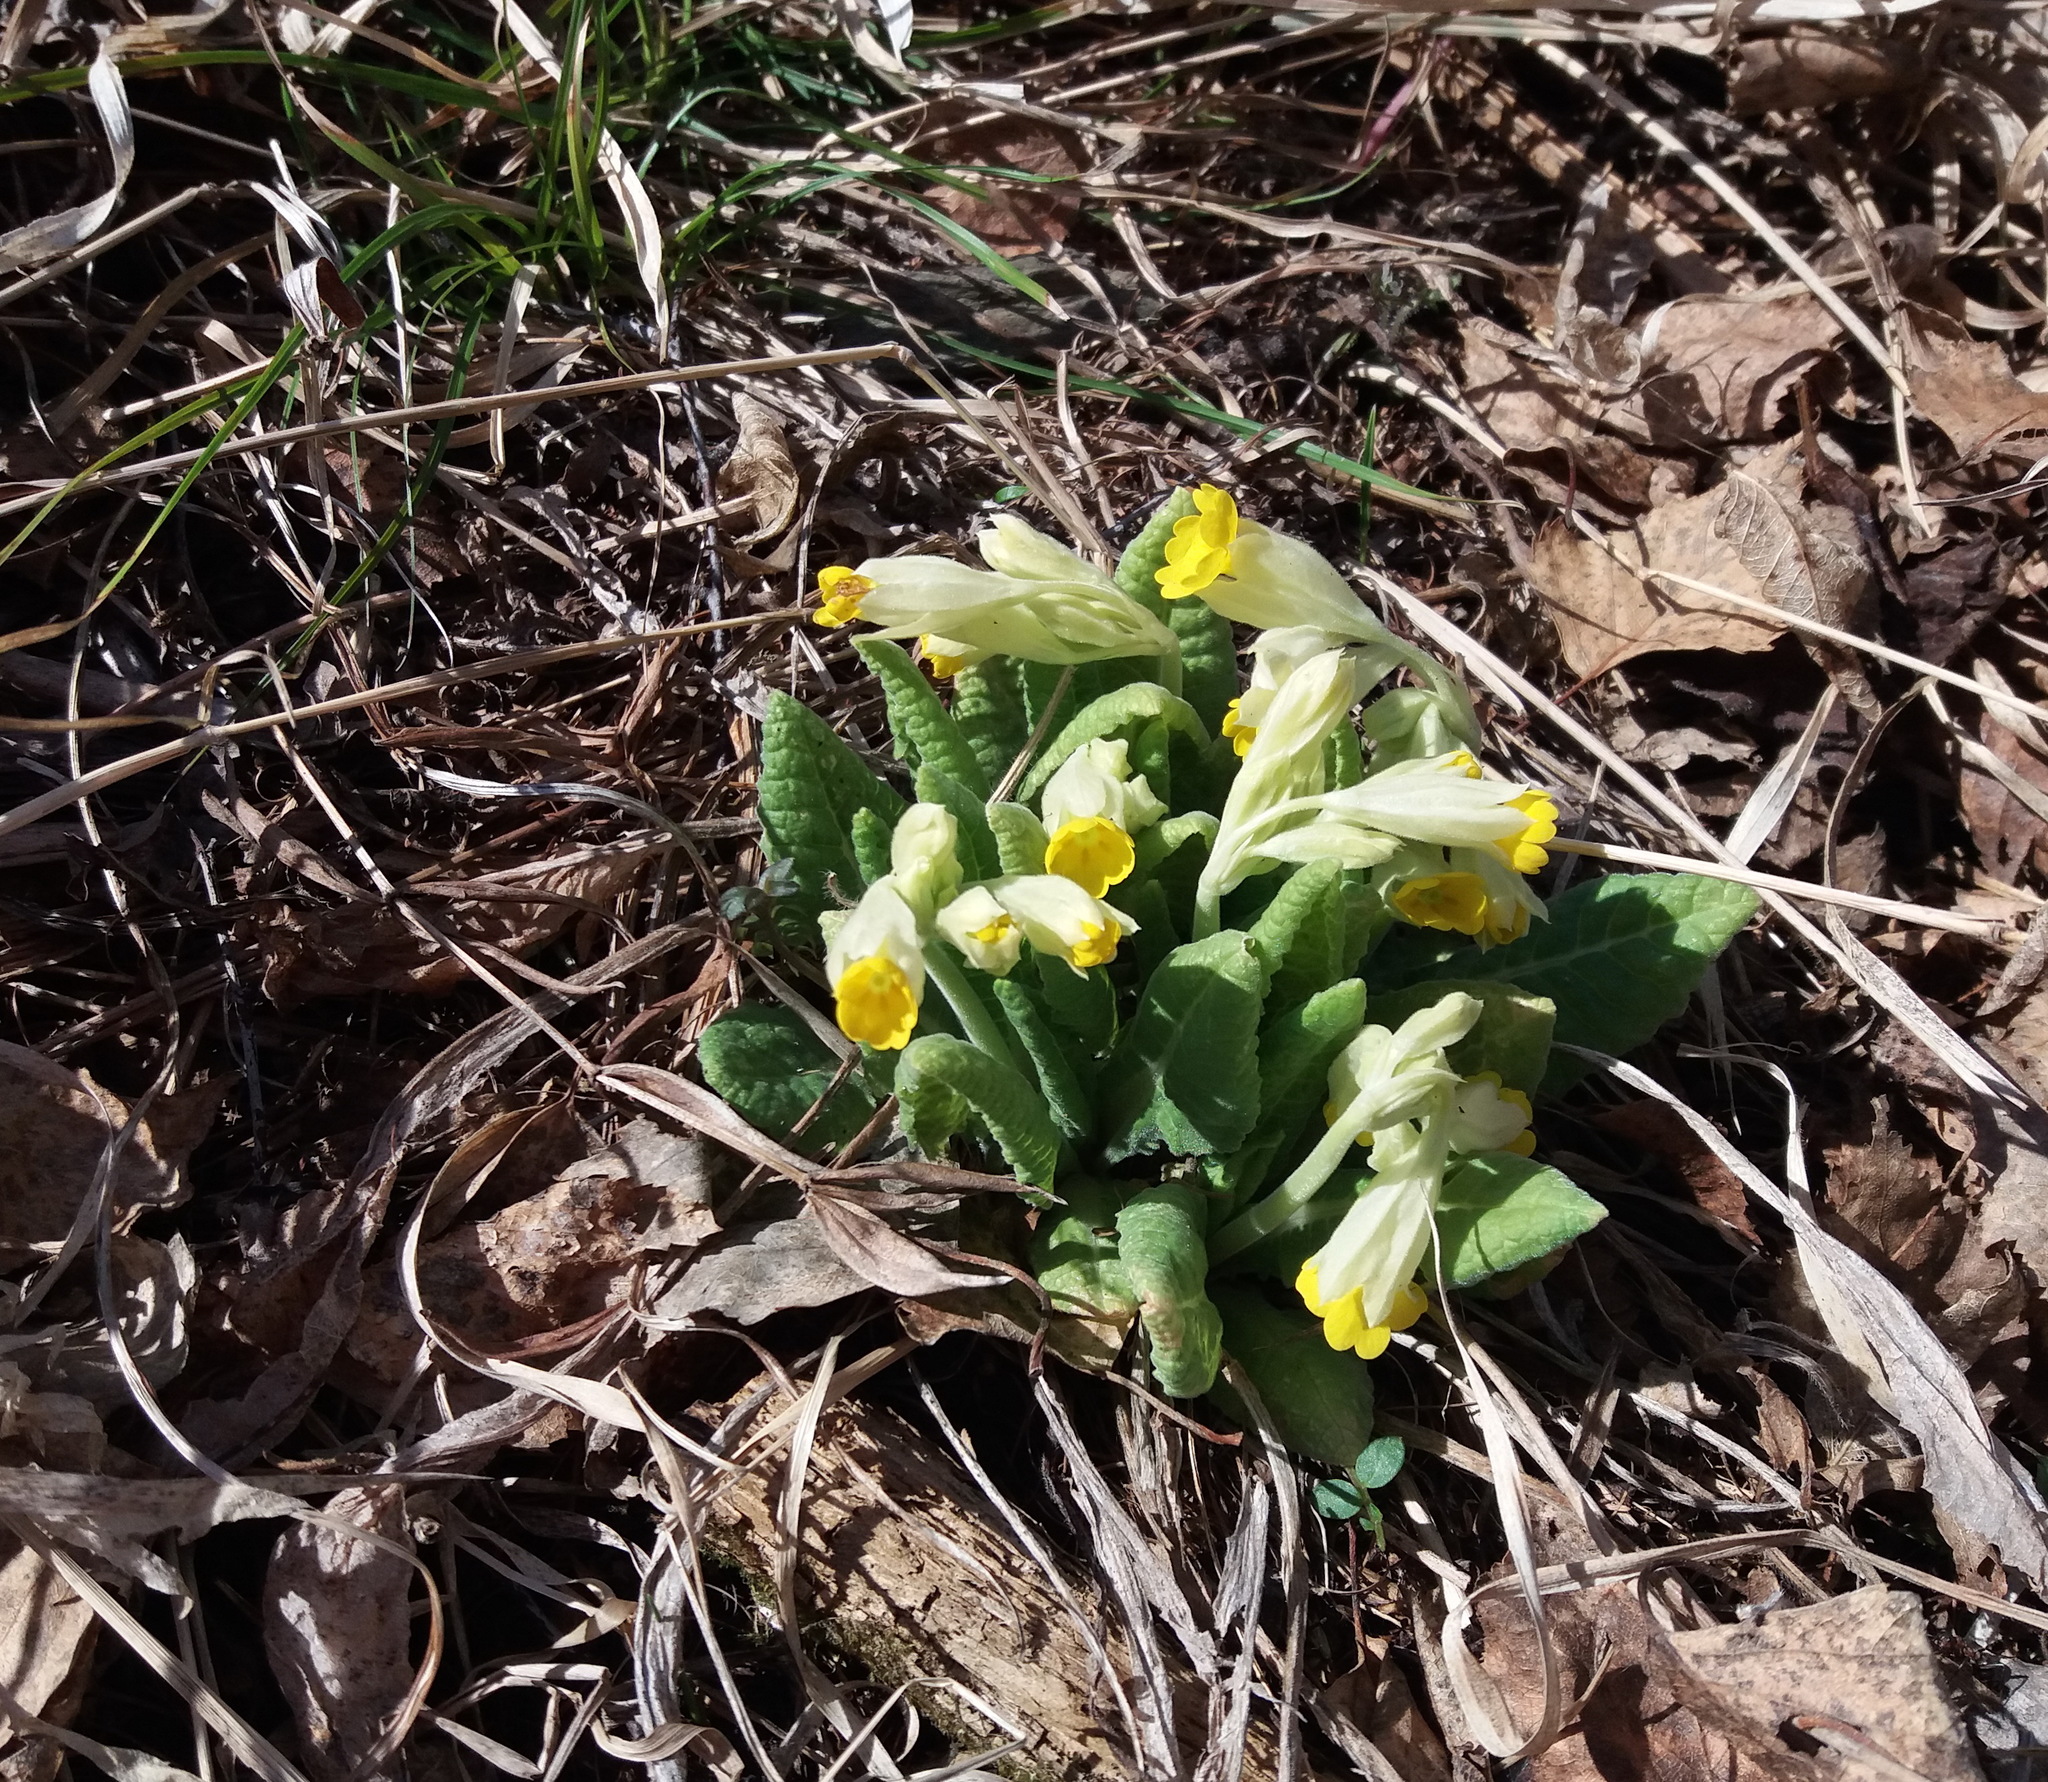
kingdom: Plantae
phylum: Tracheophyta
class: Magnoliopsida
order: Ericales
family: Primulaceae
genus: Primula
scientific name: Primula veris
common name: Cowslip
